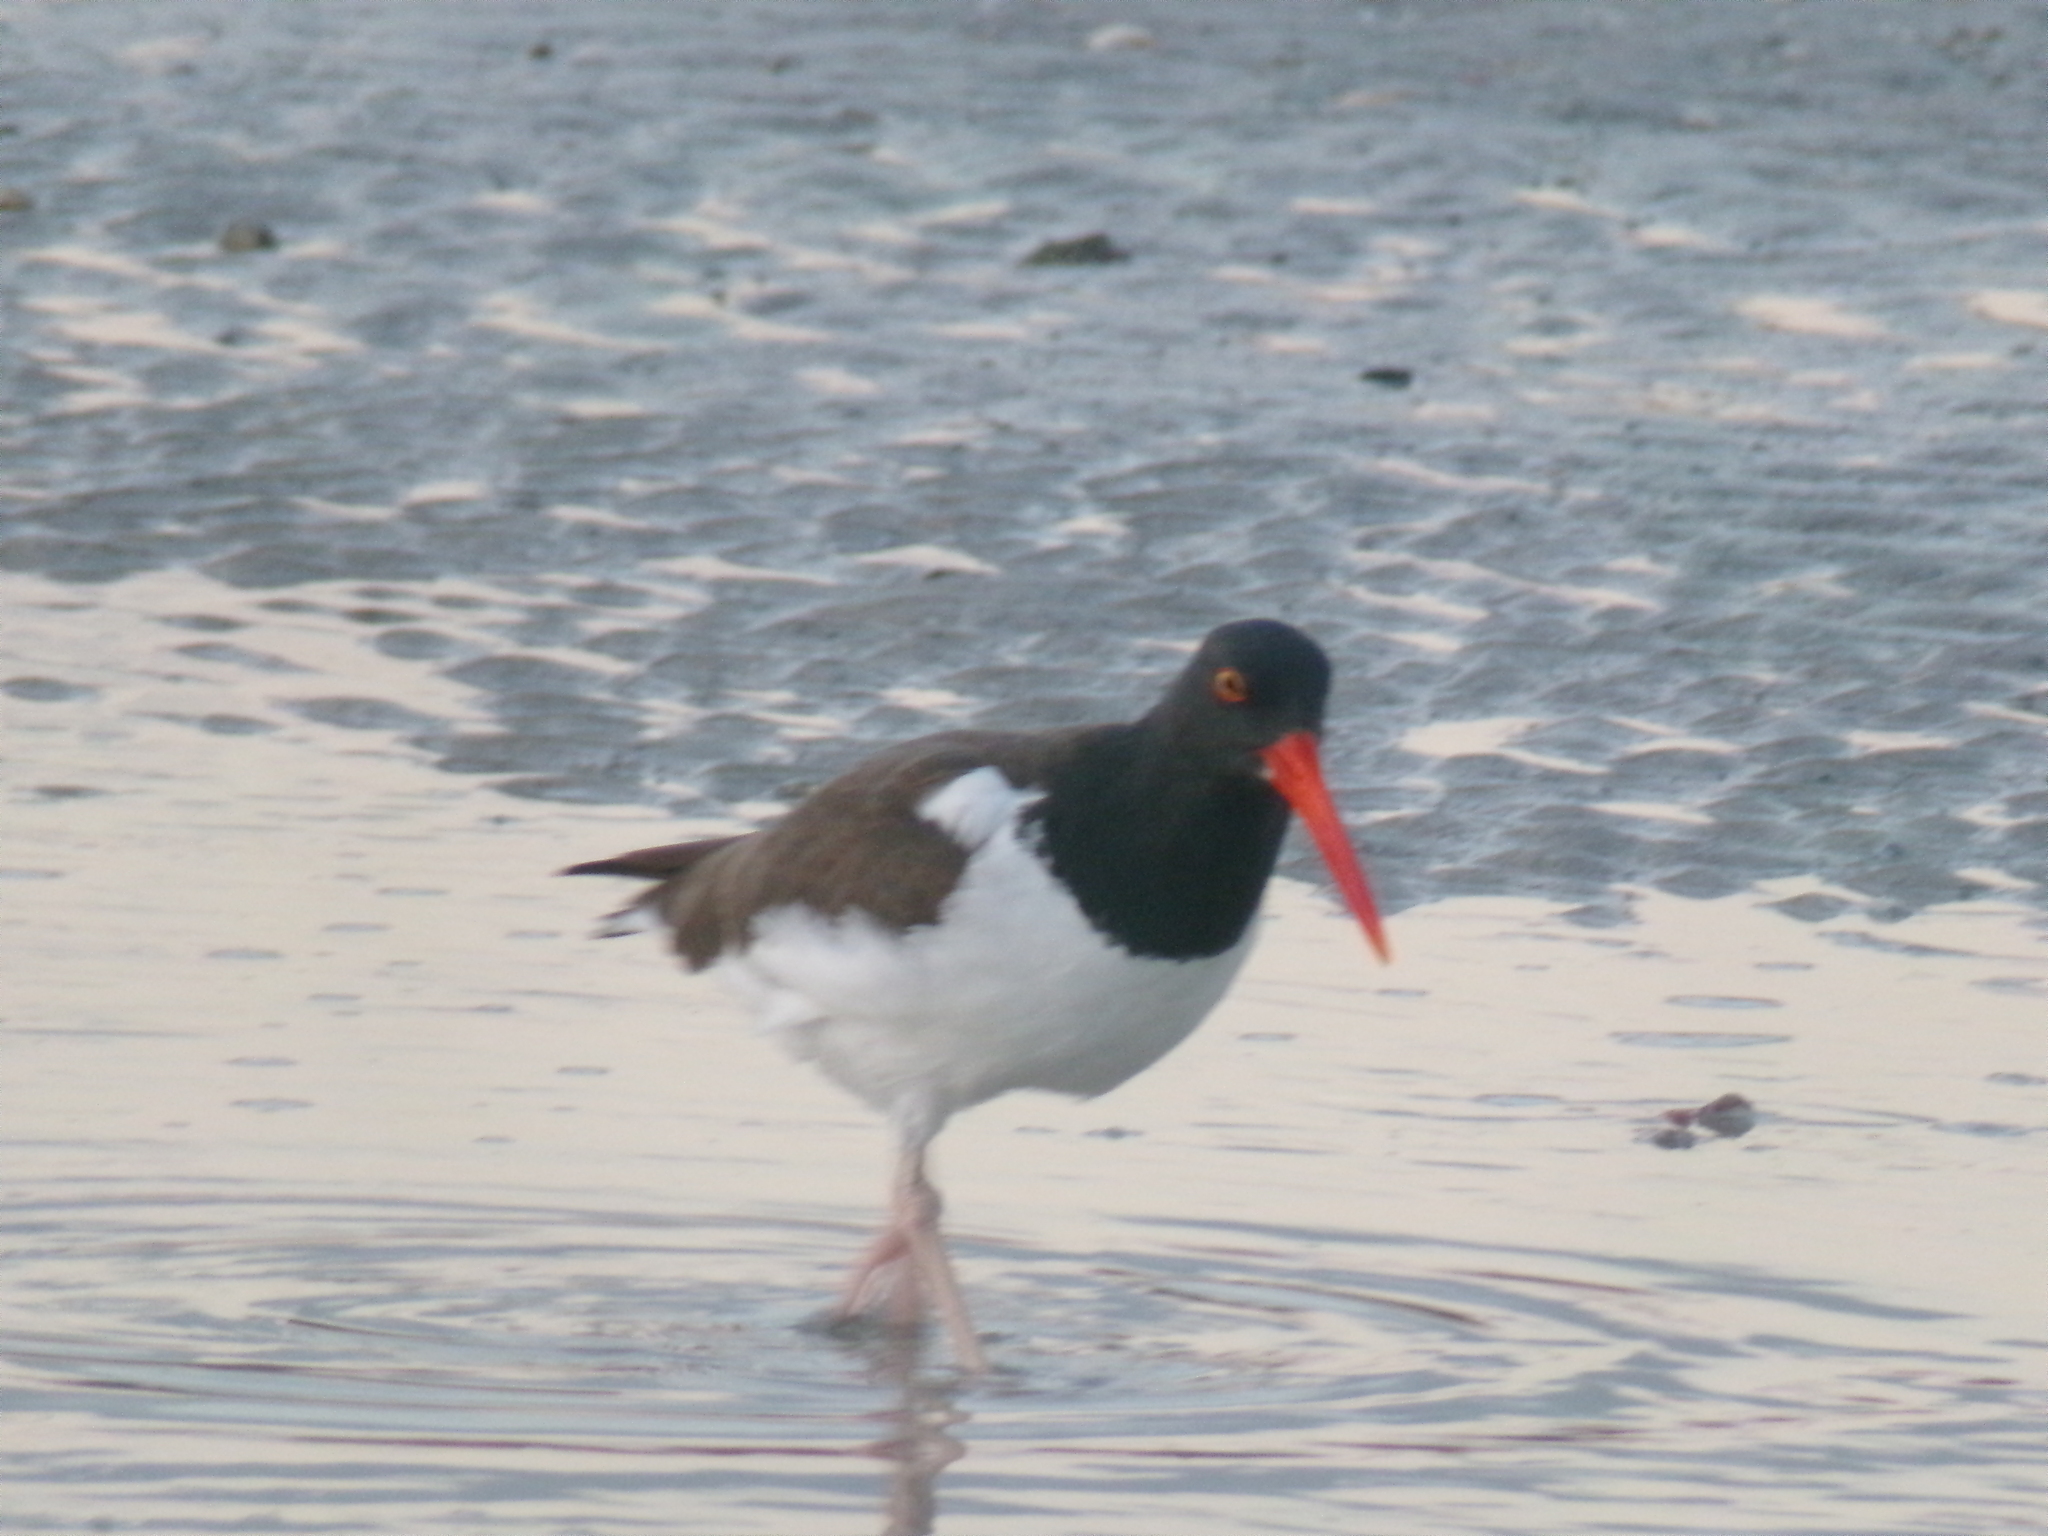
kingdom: Animalia
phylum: Chordata
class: Aves
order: Charadriiformes
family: Haematopodidae
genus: Haematopus
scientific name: Haematopus palliatus
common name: American oystercatcher
